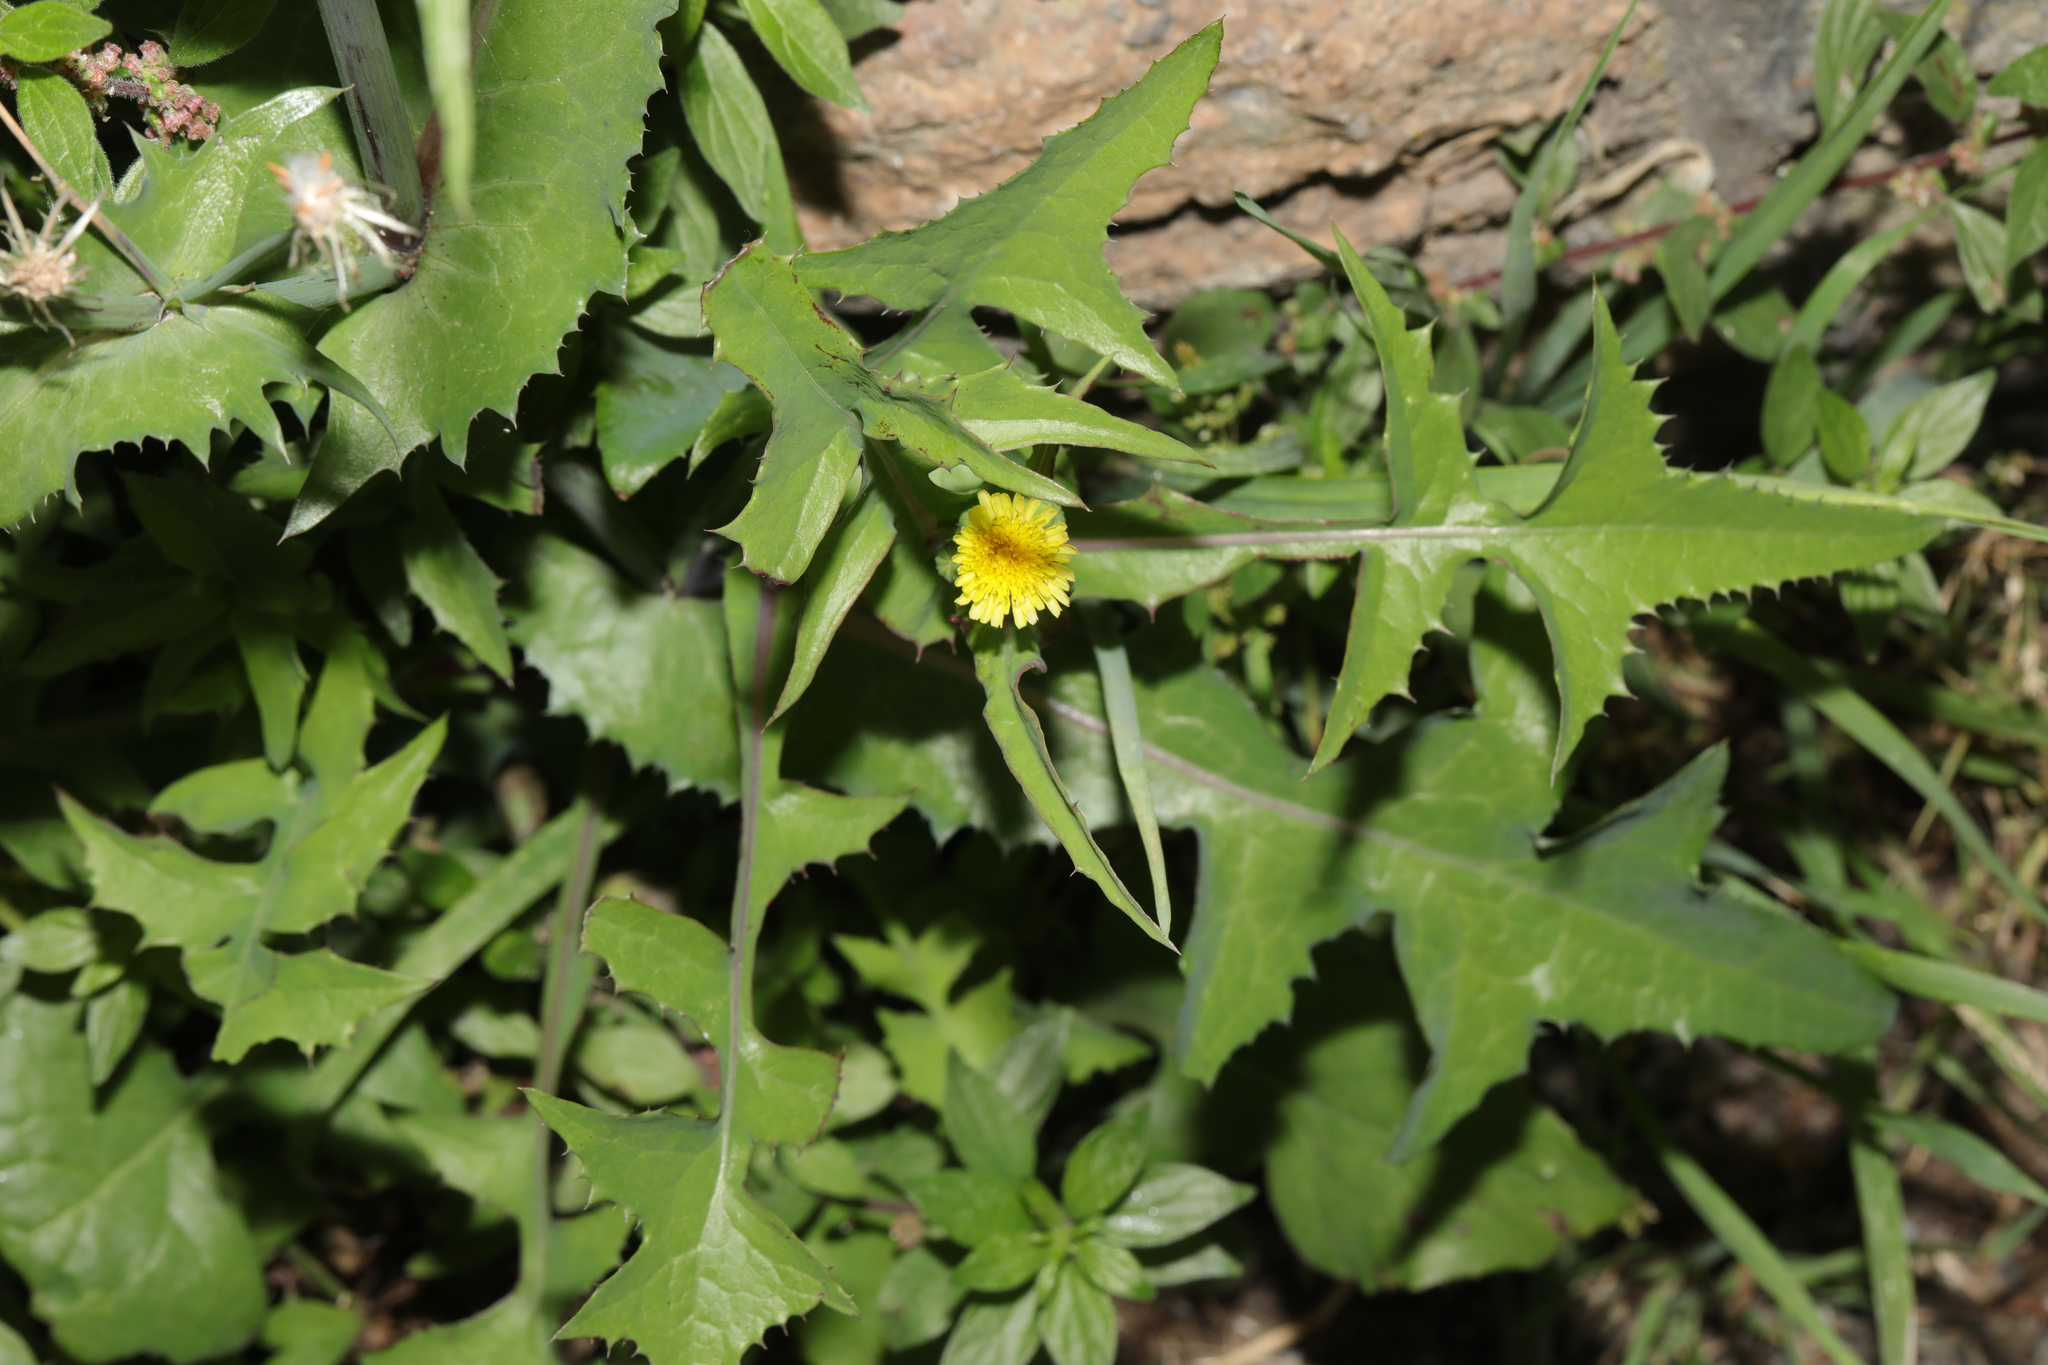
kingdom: Plantae
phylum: Tracheophyta
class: Magnoliopsida
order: Asterales
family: Asteraceae
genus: Sonchus
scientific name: Sonchus oleraceus
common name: Common sowthistle
